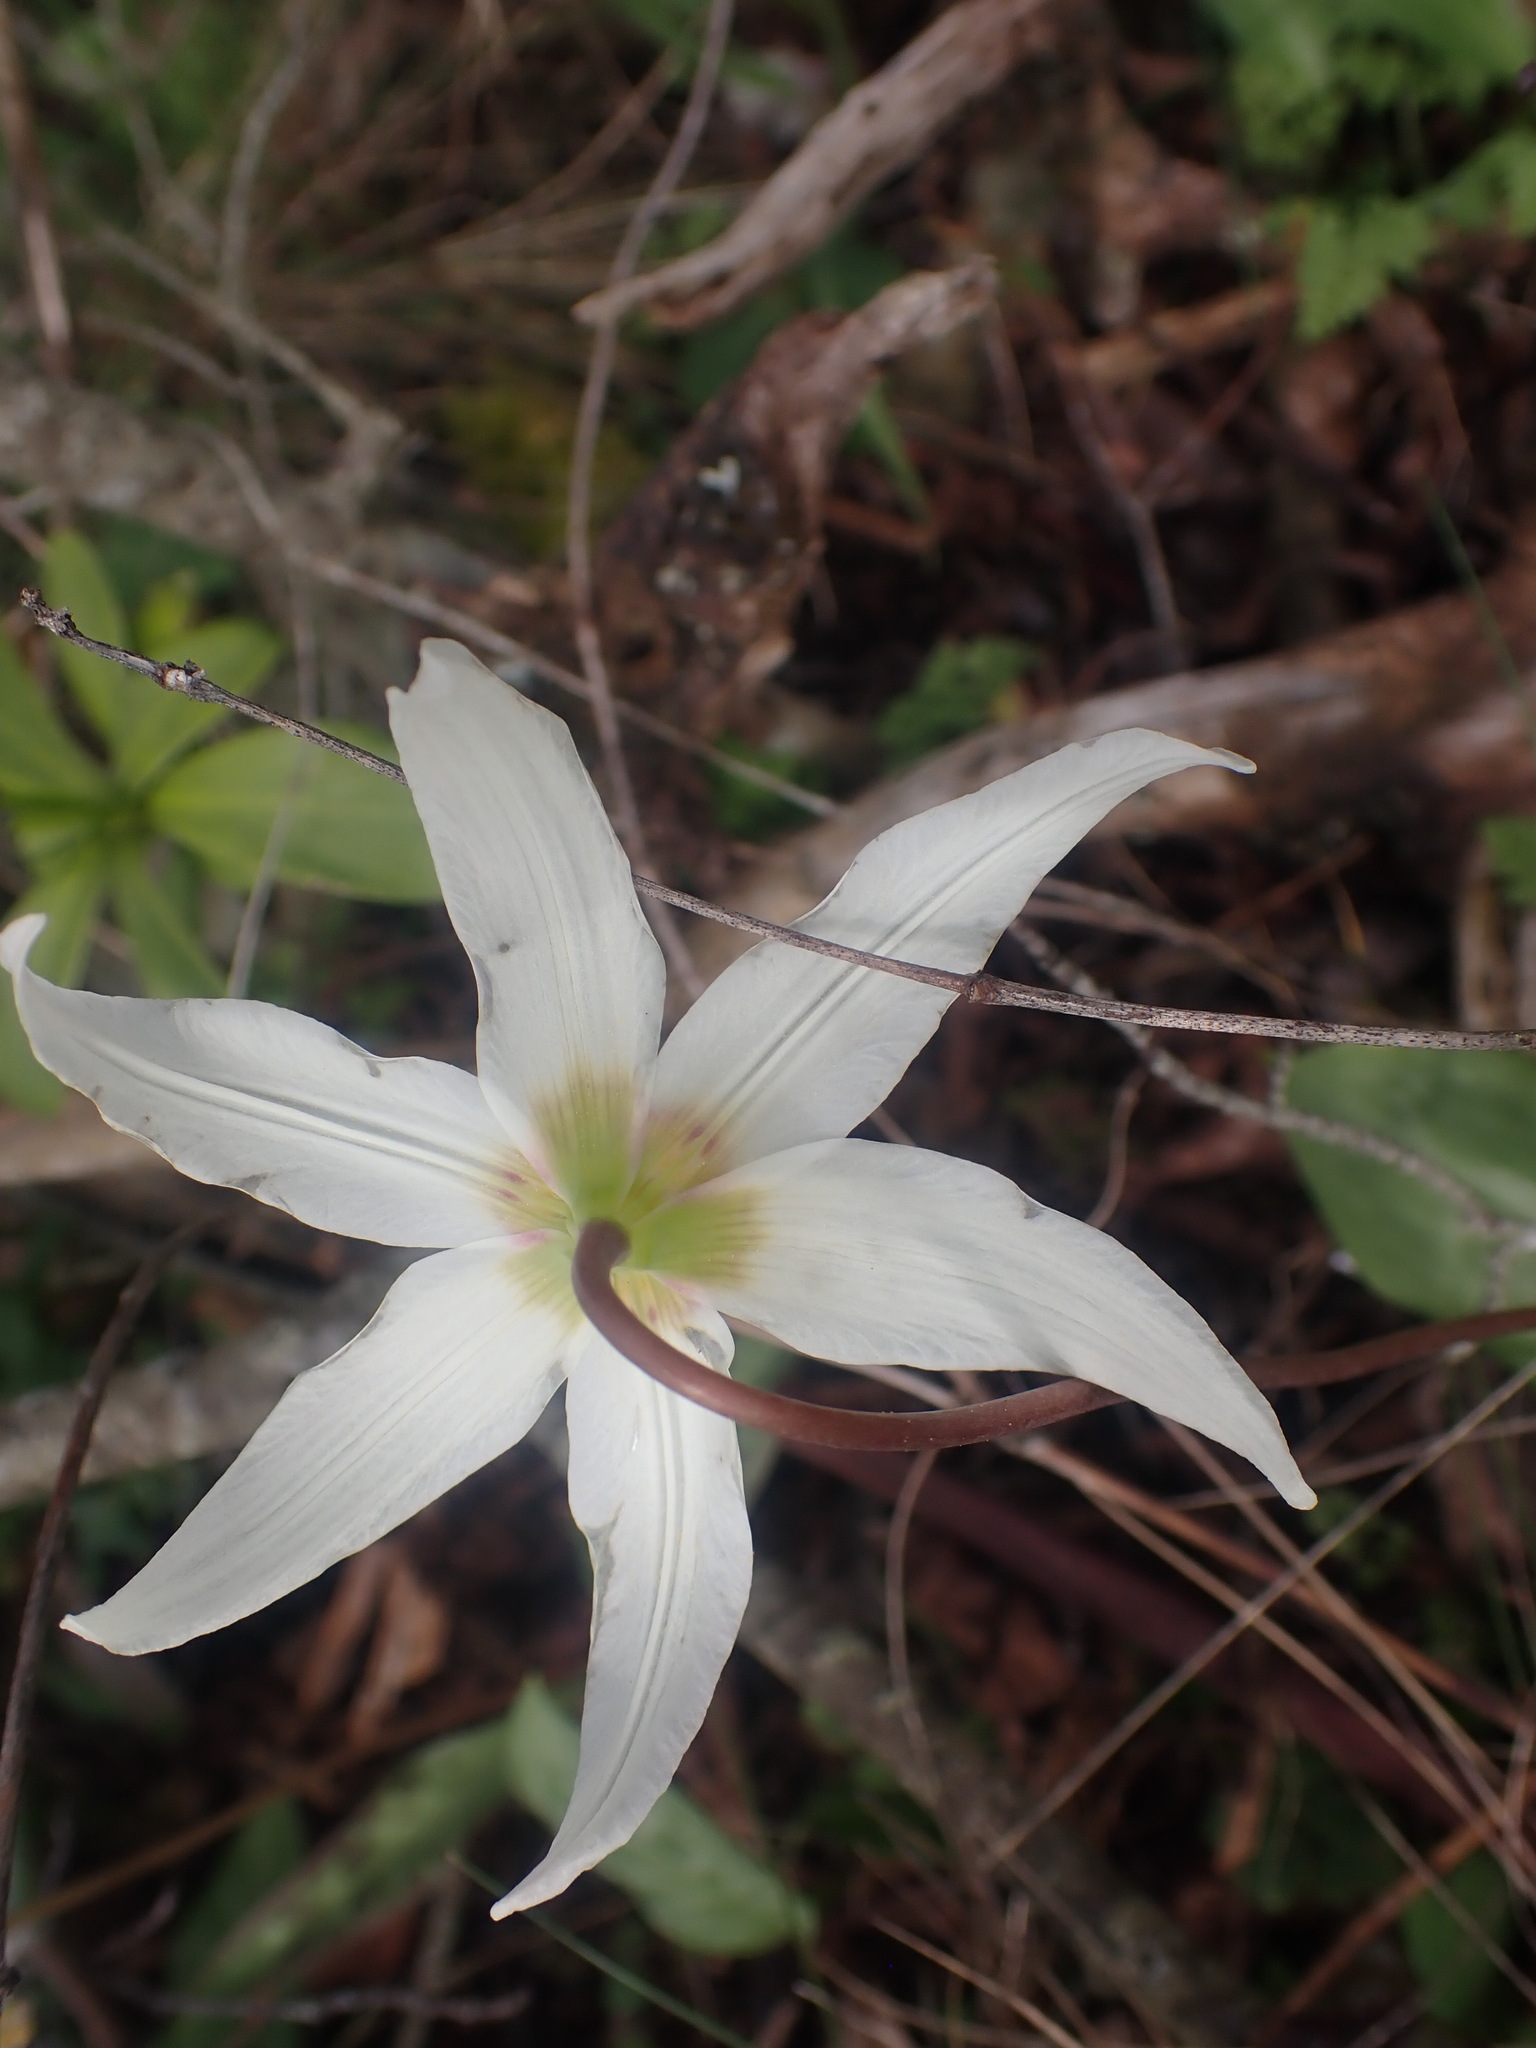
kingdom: Plantae
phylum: Tracheophyta
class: Liliopsida
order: Liliales
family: Liliaceae
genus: Erythronium
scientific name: Erythronium oregonum
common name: Giant adder's-tongue
